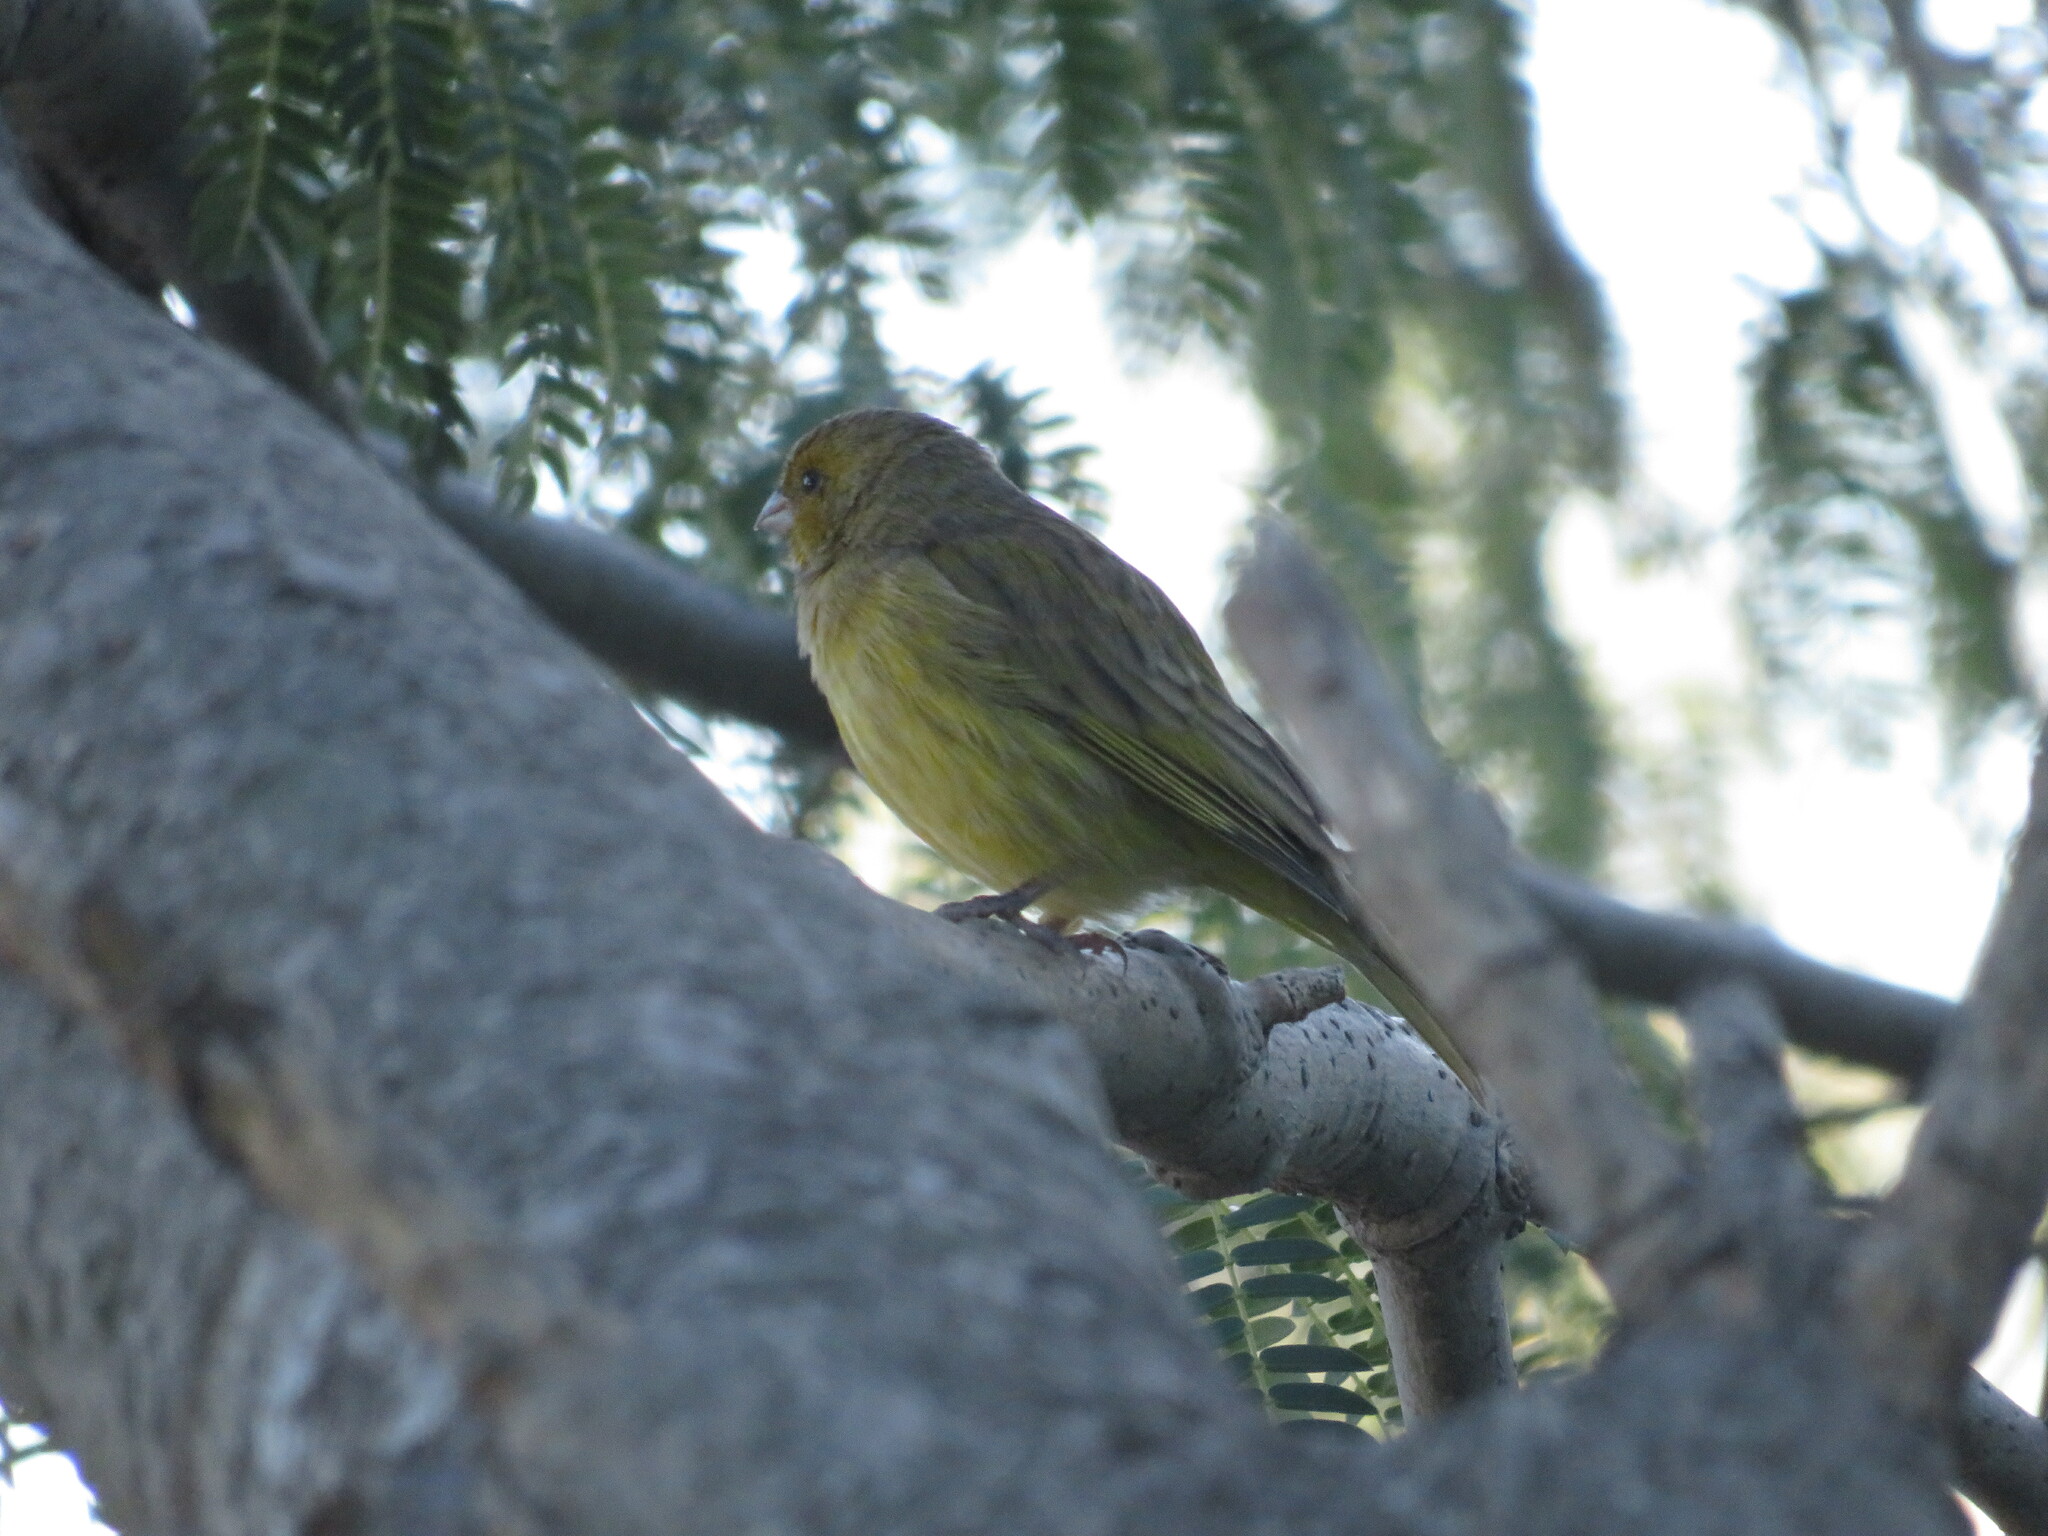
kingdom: Animalia
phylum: Chordata
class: Aves
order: Passeriformes
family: Thraupidae
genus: Sicalis
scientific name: Sicalis flaveola
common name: Saffron finch
